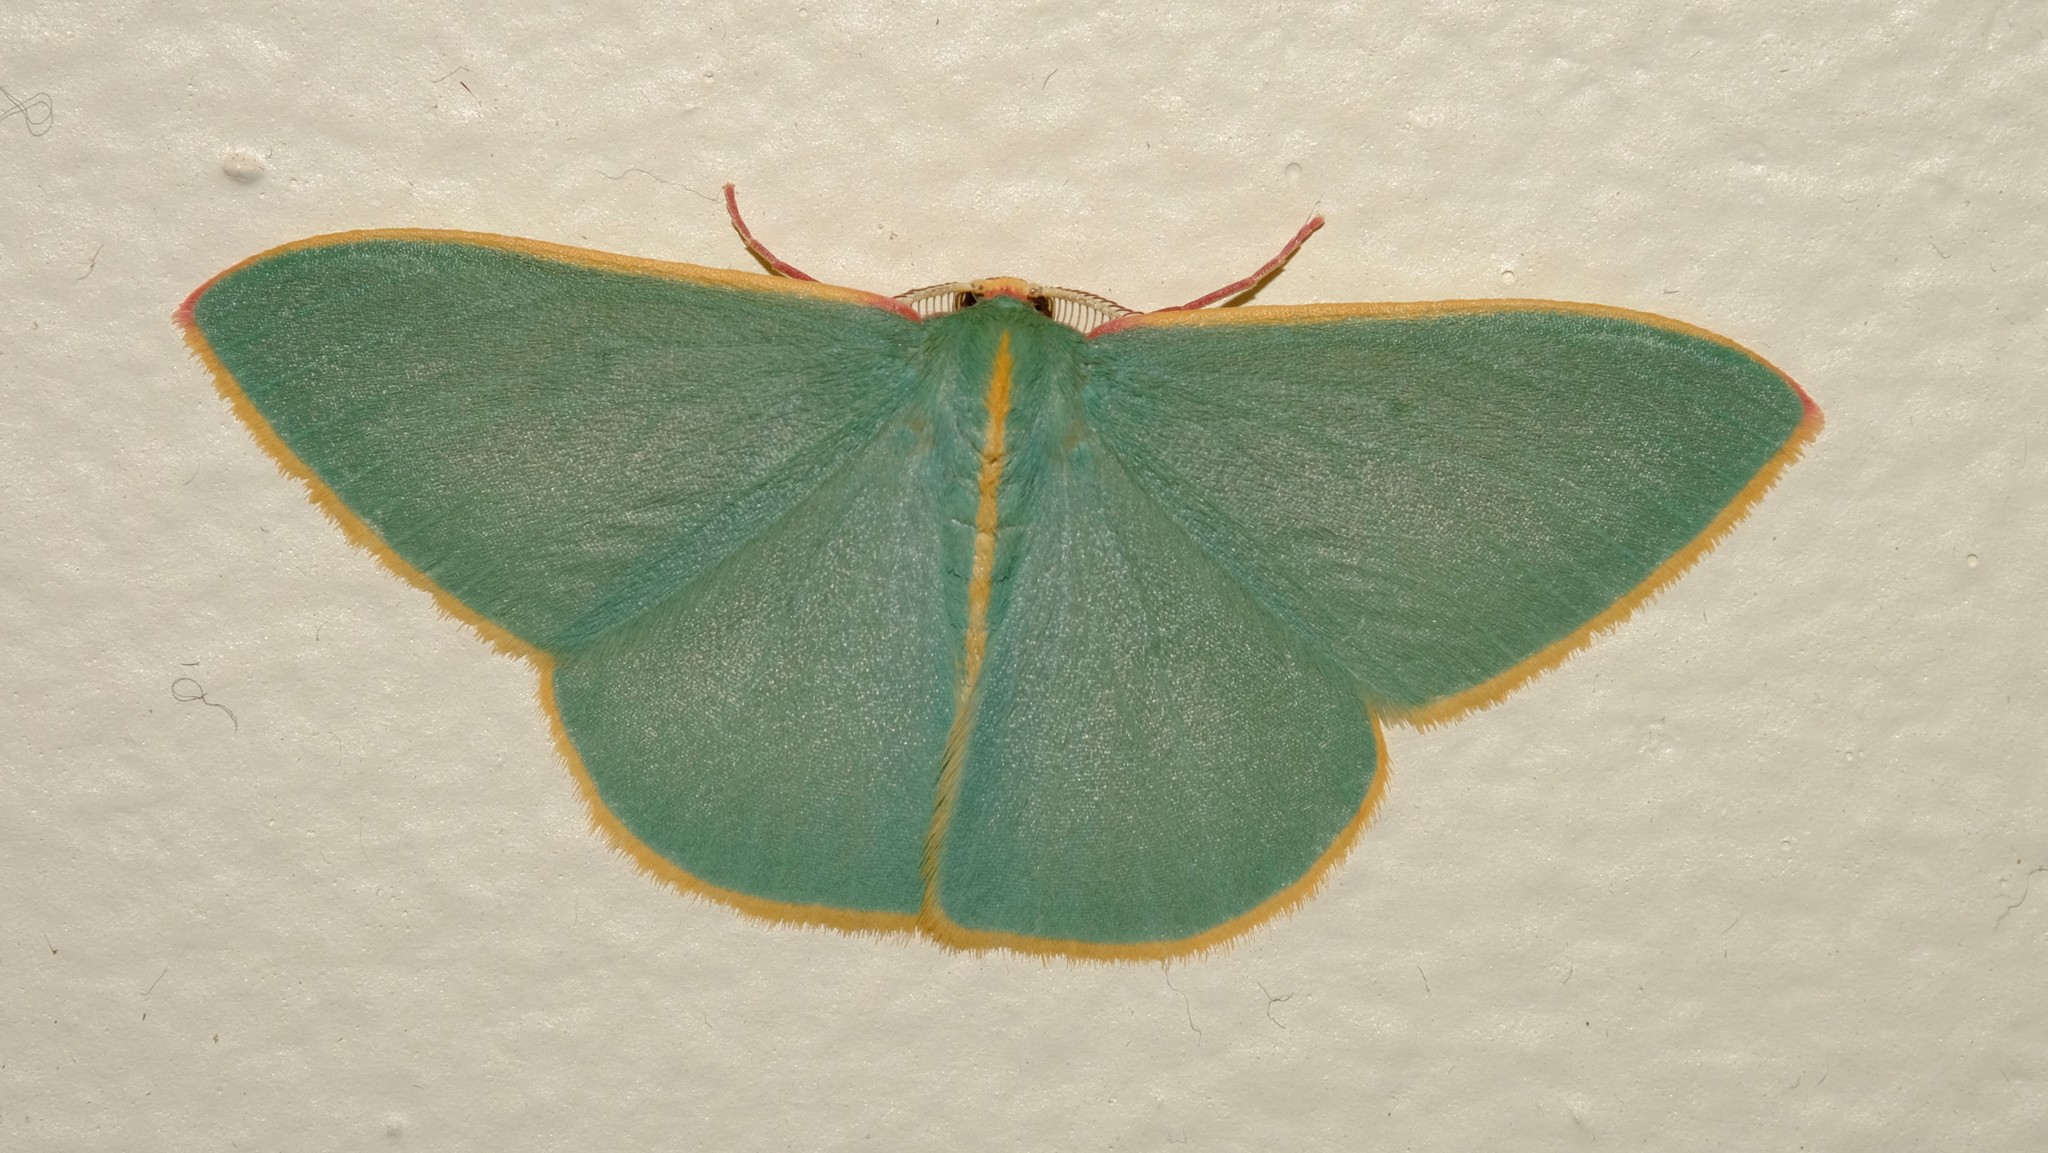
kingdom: Animalia
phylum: Arthropoda
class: Insecta
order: Lepidoptera
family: Geometridae
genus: Chlorocoma
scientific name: Chlorocoma assimilis
